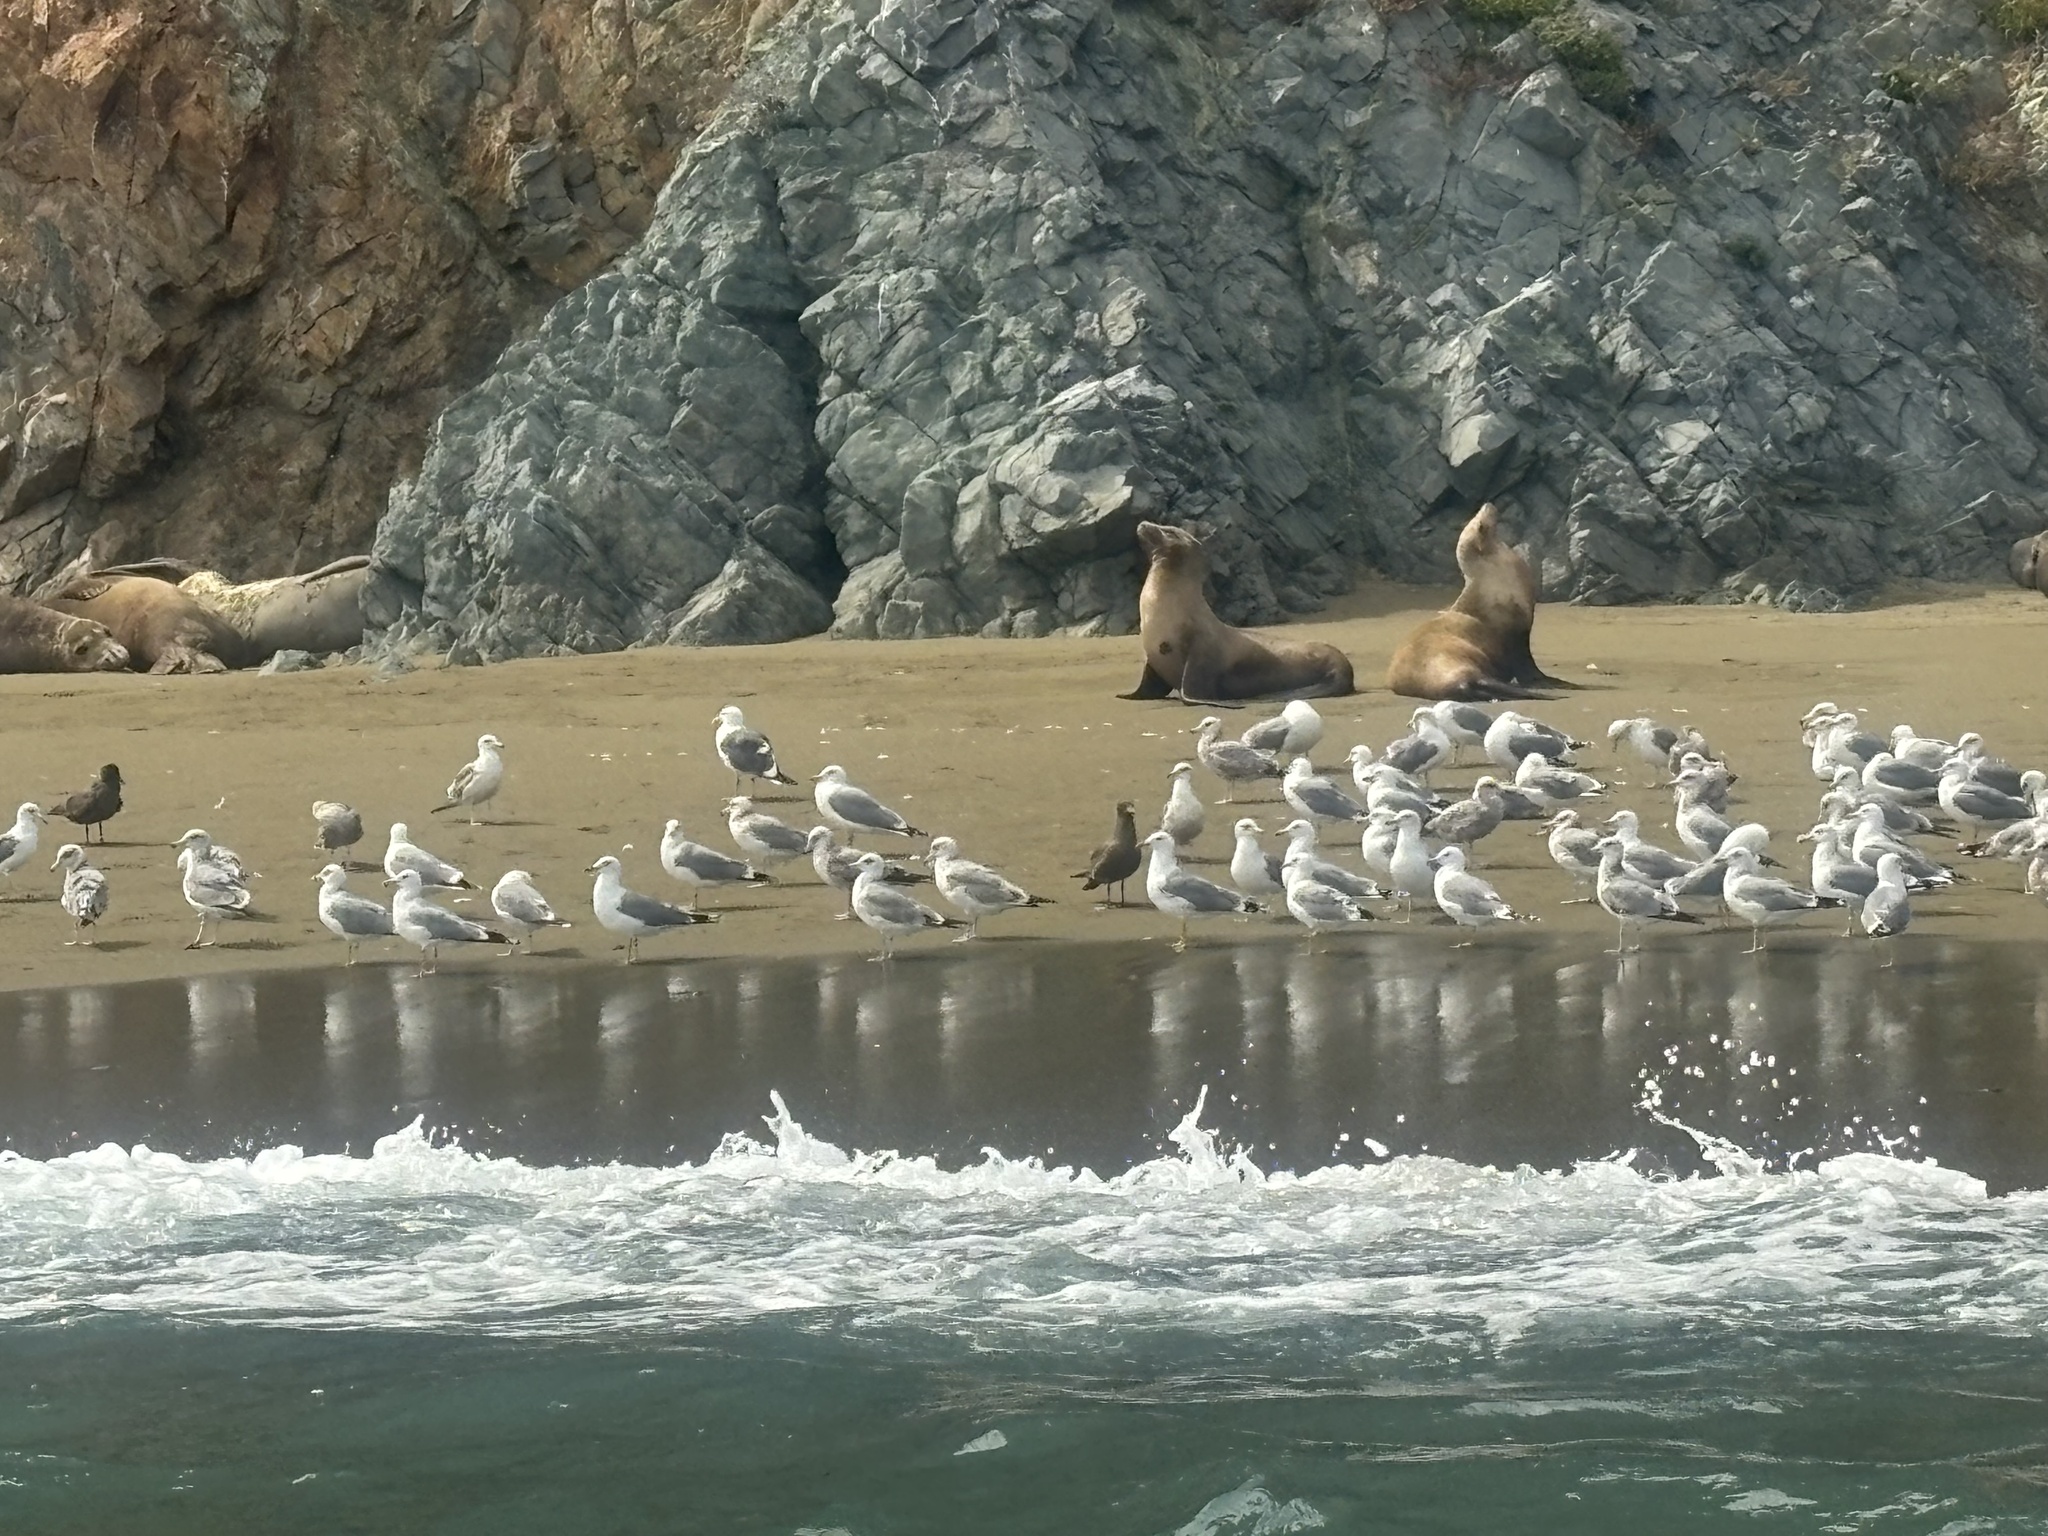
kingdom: Animalia
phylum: Chordata
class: Aves
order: Charadriiformes
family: Laridae
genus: Larus
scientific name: Larus occidentalis
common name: Western gull
